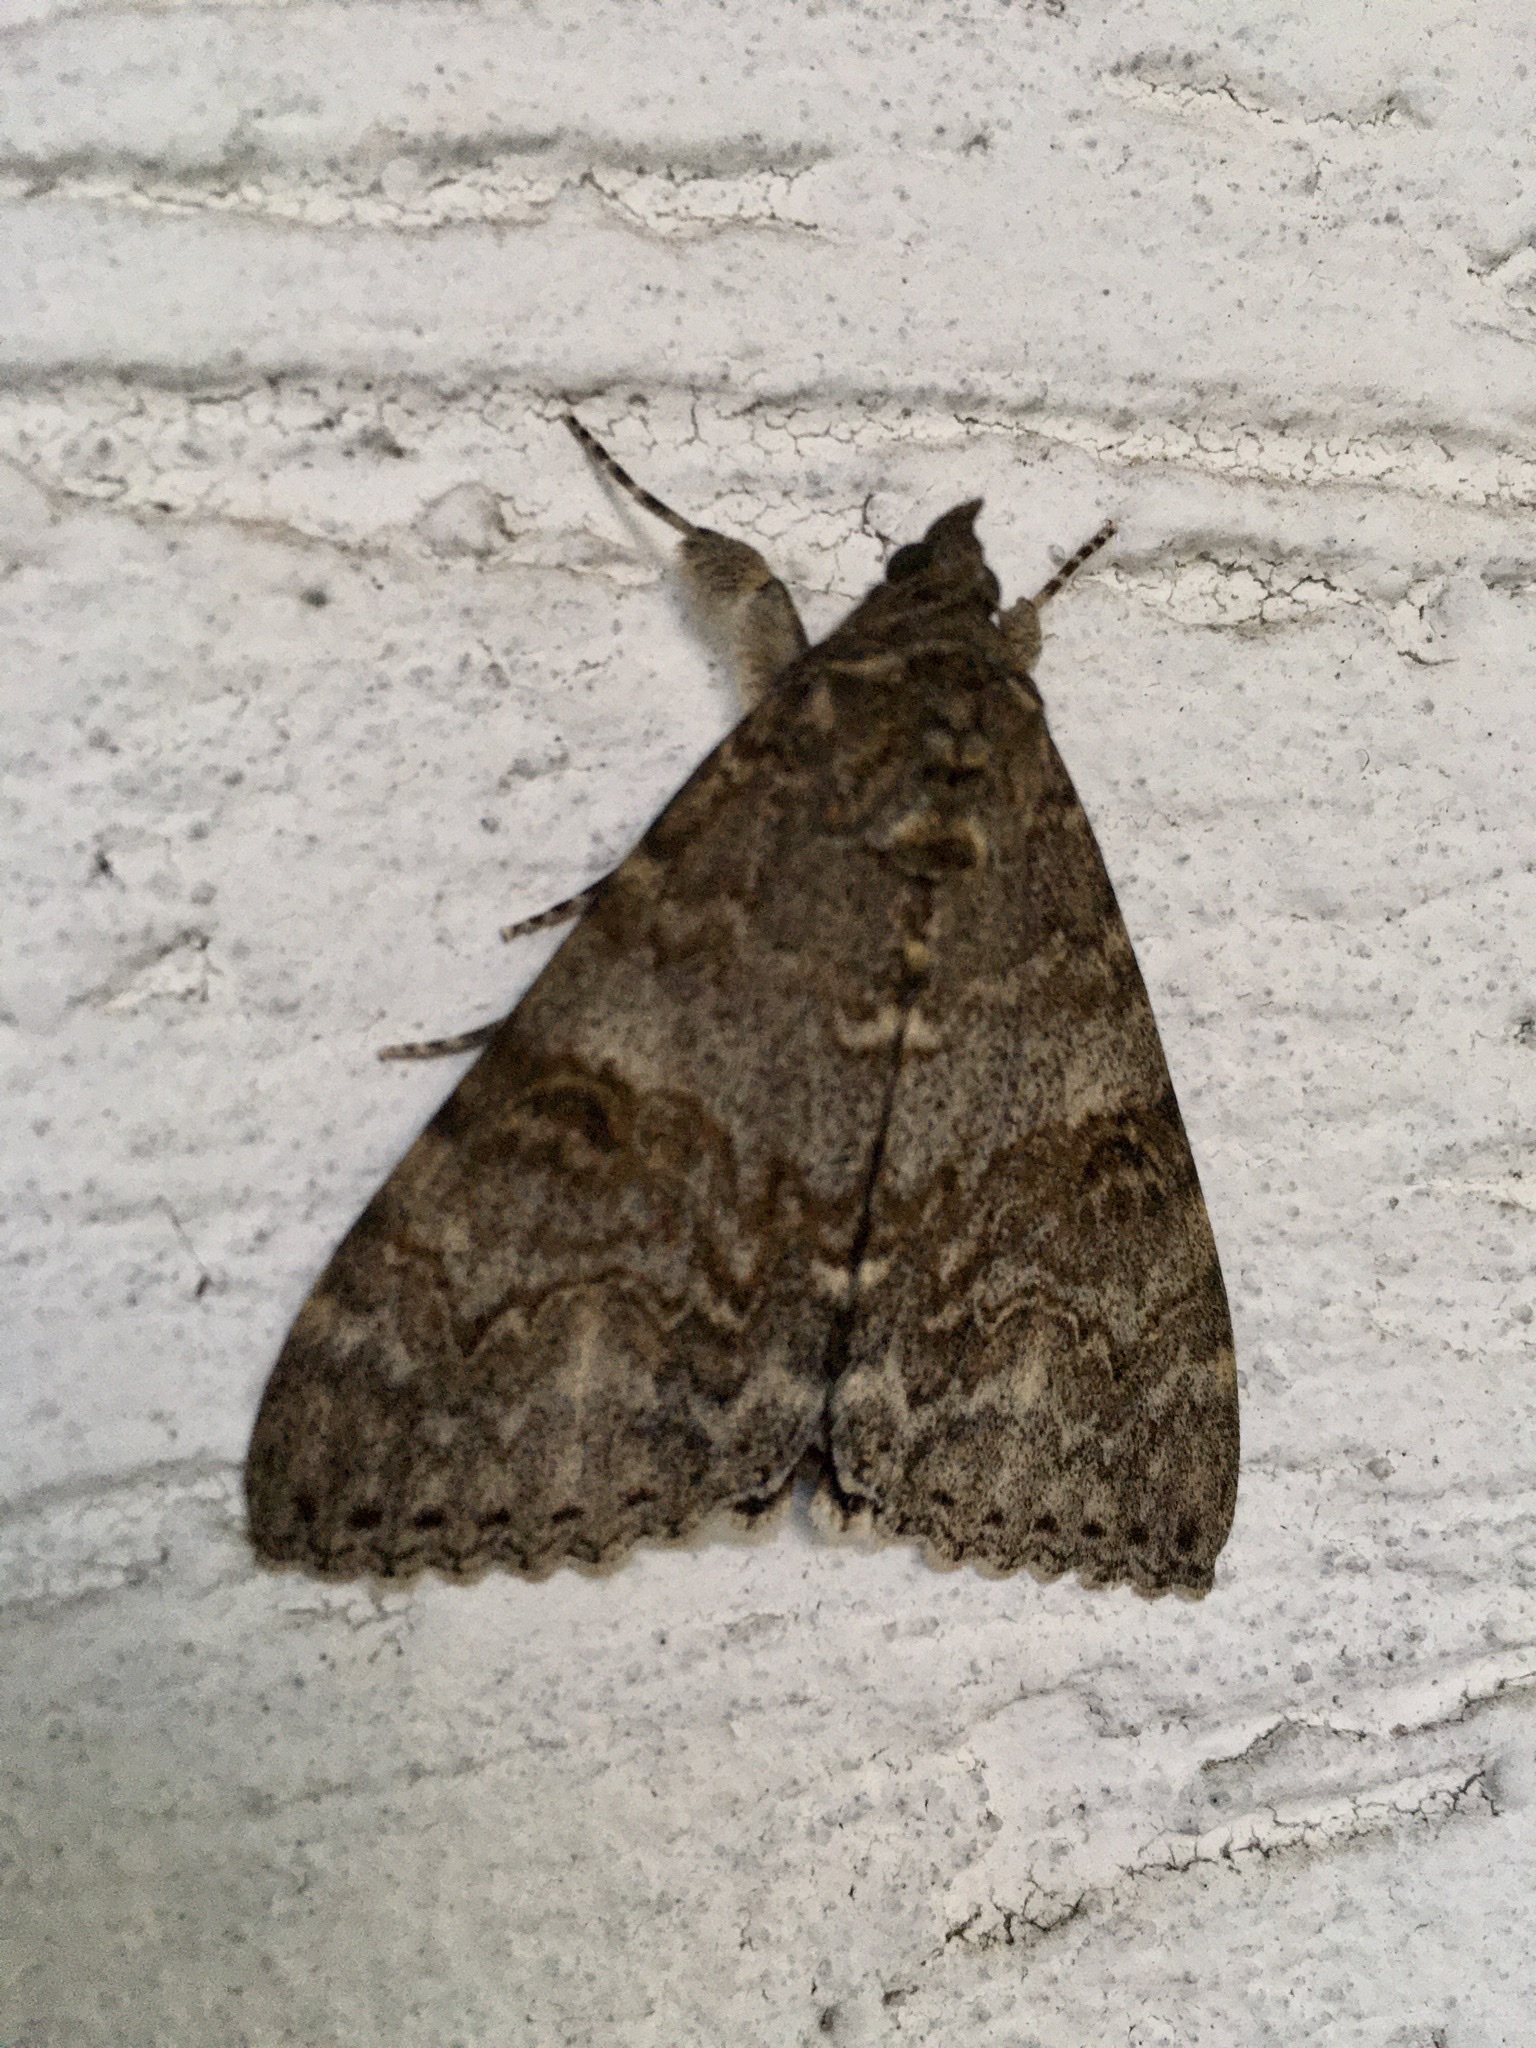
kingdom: Animalia
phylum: Arthropoda
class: Insecta
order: Lepidoptera
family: Erebidae
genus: Catocala
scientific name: Catocala nupta
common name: Red underwing
